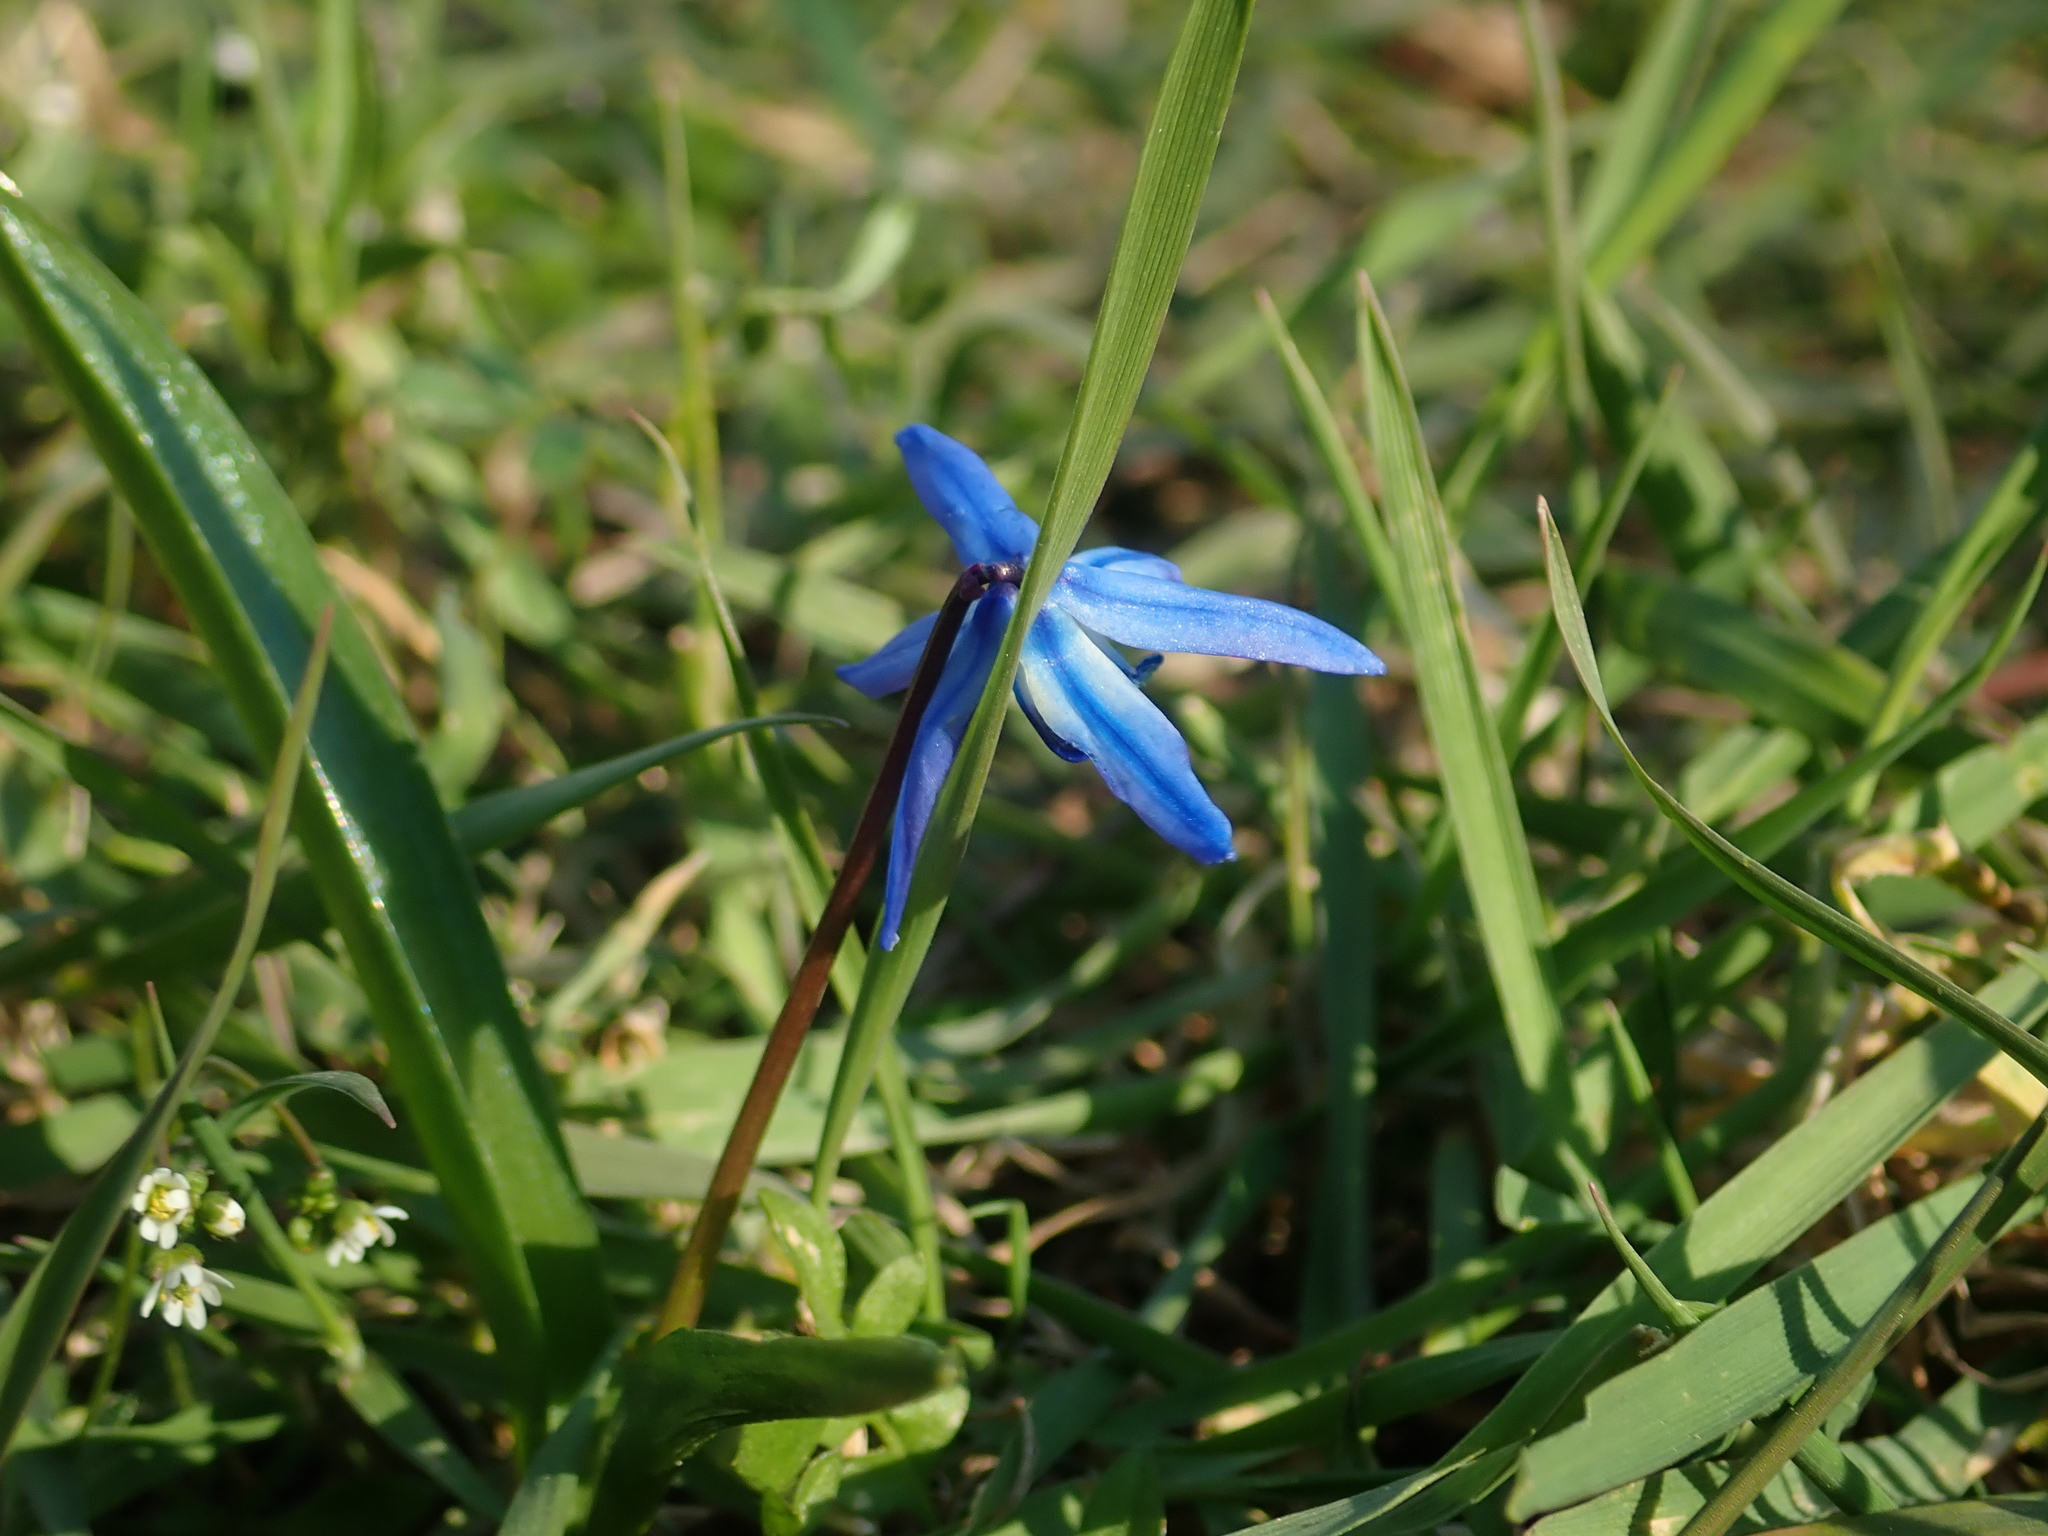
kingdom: Plantae
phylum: Tracheophyta
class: Liliopsida
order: Asparagales
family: Asparagaceae
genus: Scilla
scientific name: Scilla siberica
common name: Siberian squill
